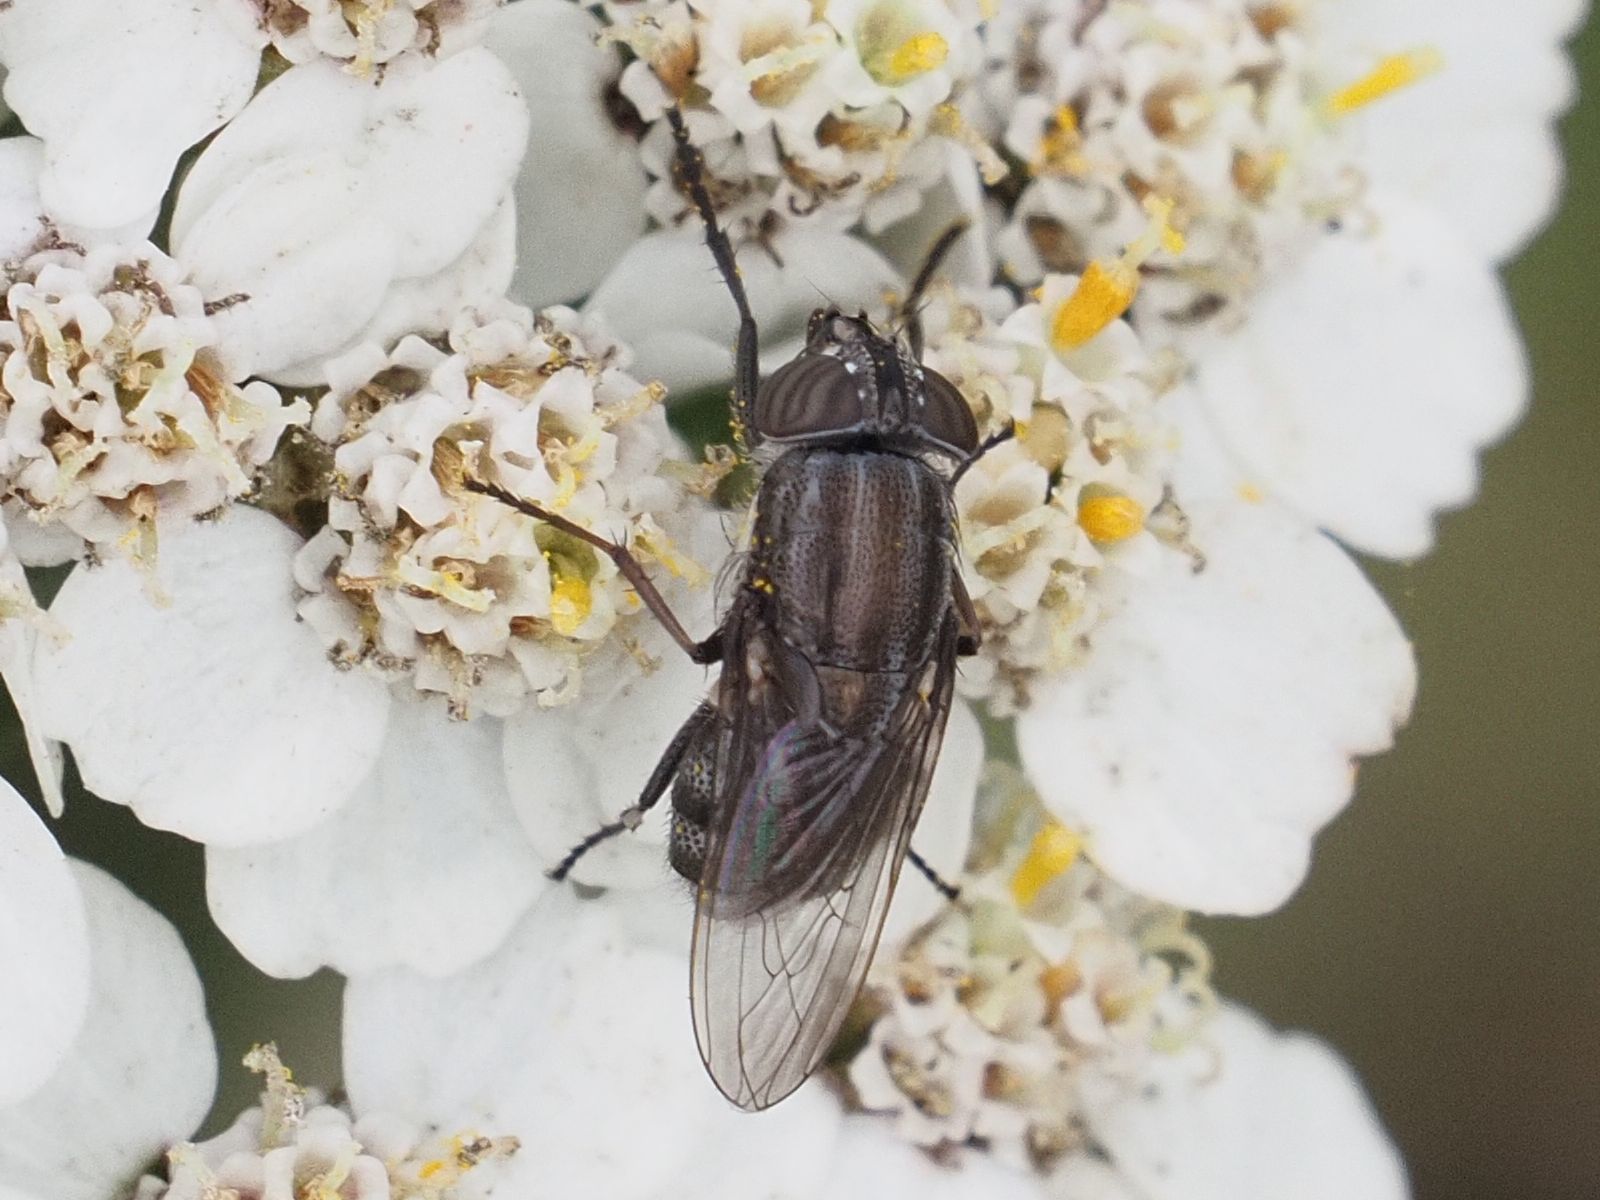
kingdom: Animalia
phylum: Arthropoda
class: Insecta
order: Diptera
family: Calliphoridae
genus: Stomorhina
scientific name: Stomorhina lunata
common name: Locust blowfly
